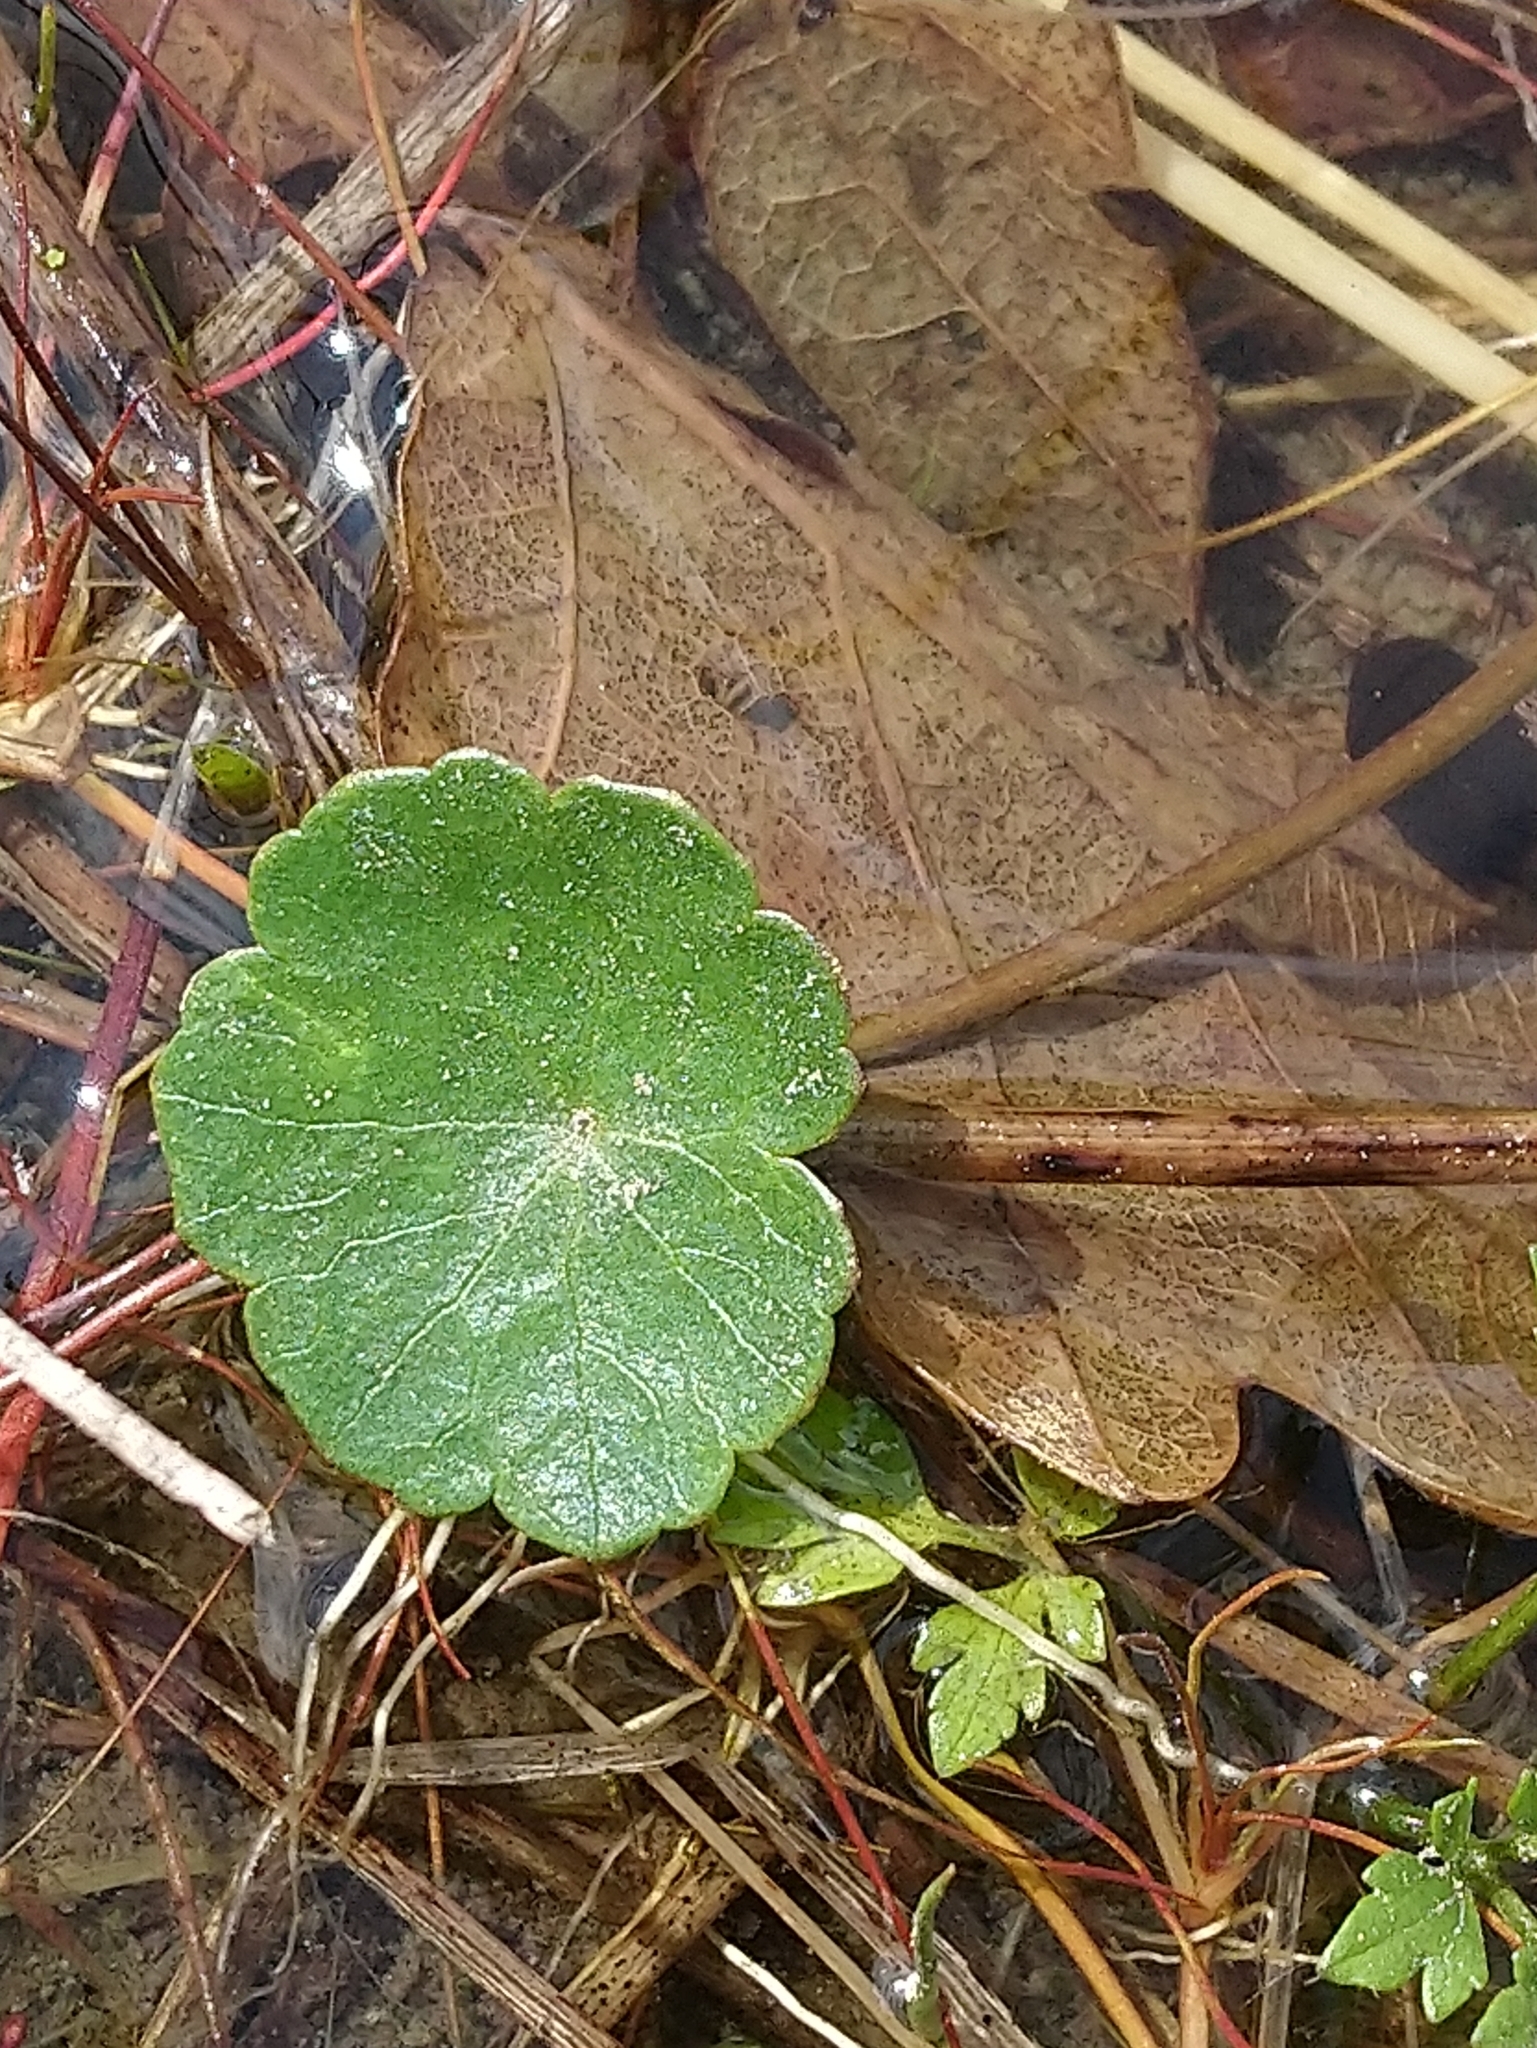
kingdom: Plantae
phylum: Tracheophyta
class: Magnoliopsida
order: Apiales
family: Araliaceae
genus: Hydrocotyle
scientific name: Hydrocotyle vulgaris
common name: Marsh pennywort
